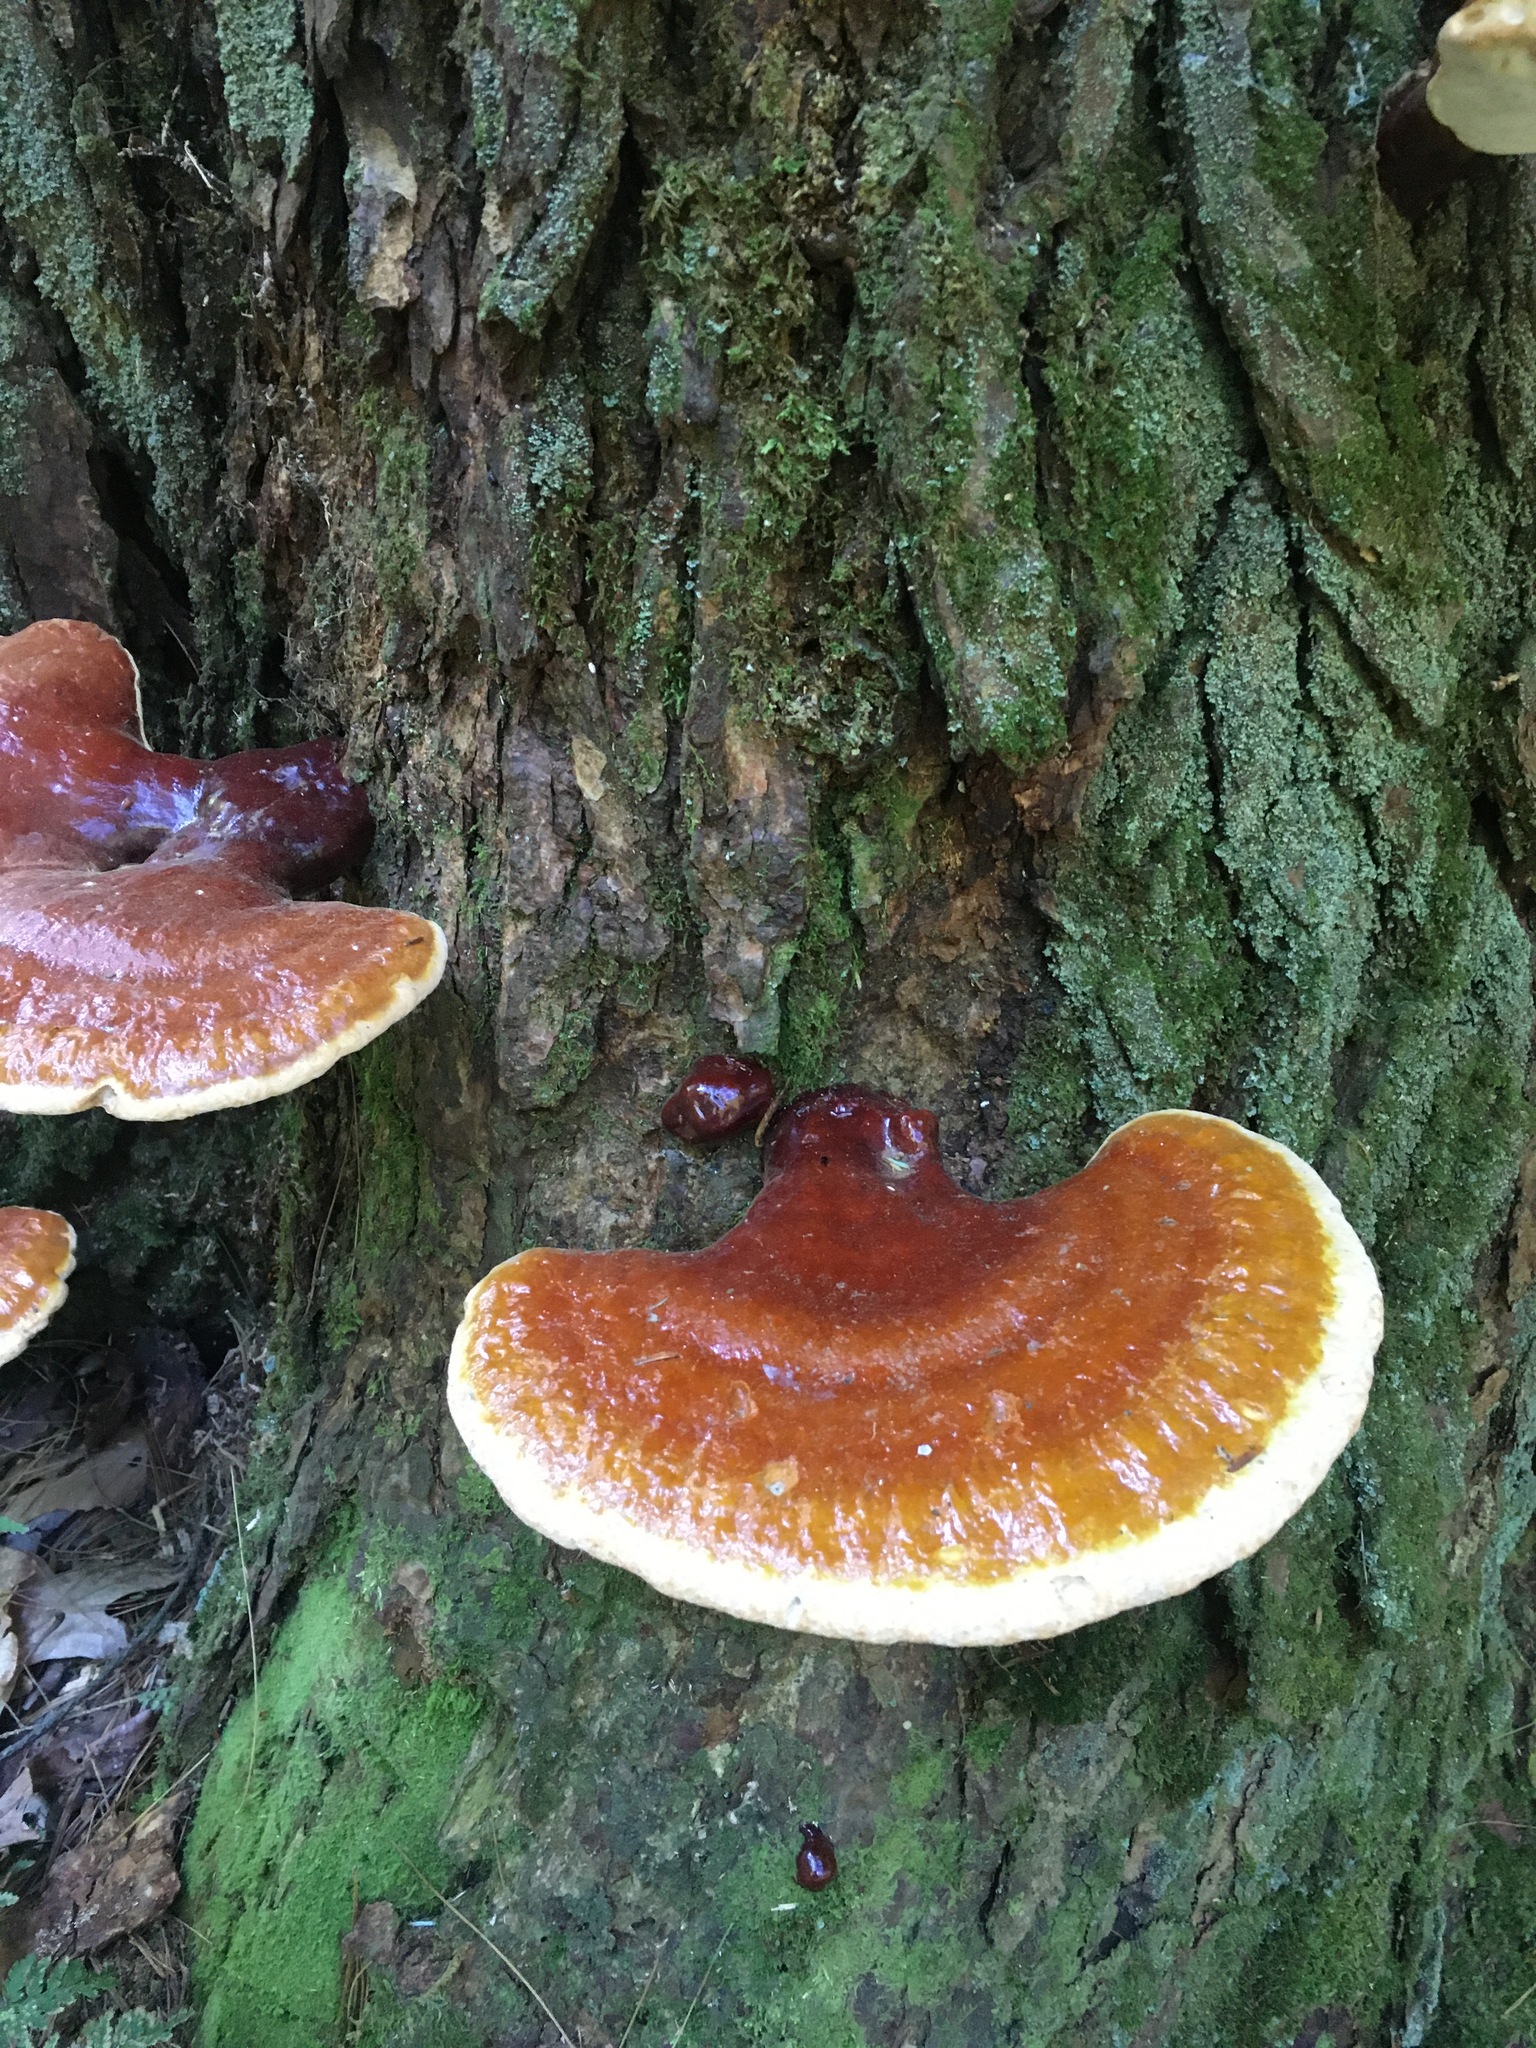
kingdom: Fungi
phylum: Basidiomycota
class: Agaricomycetes
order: Polyporales
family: Polyporaceae
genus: Ganoderma
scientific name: Ganoderma tsugae
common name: Hemlock varnish shelf
